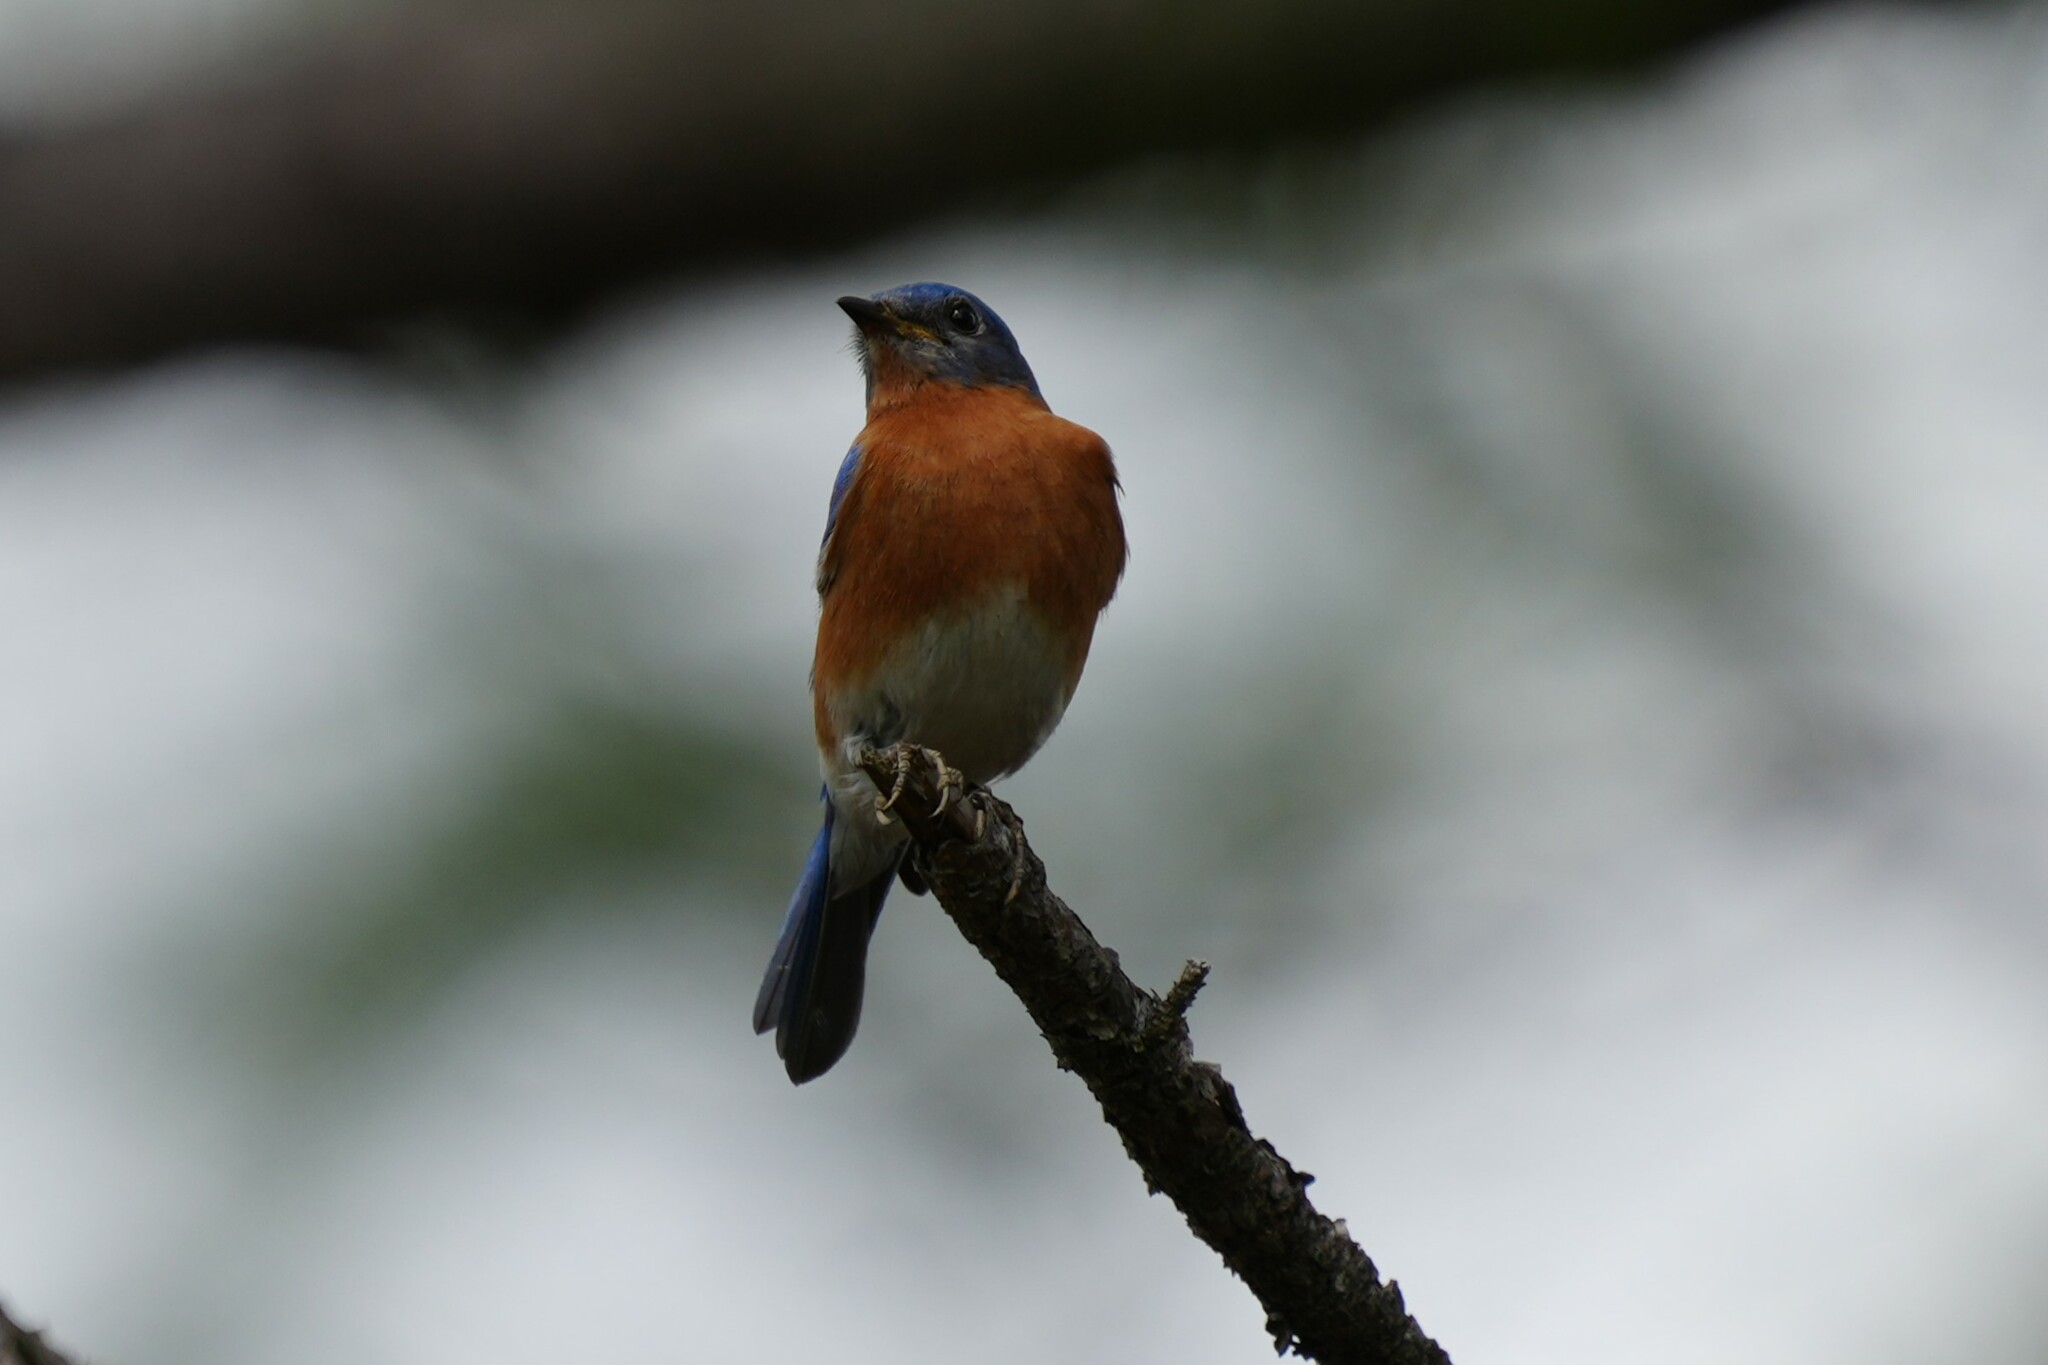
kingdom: Animalia
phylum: Chordata
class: Aves
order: Passeriformes
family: Turdidae
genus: Sialia
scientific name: Sialia sialis
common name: Eastern bluebird
